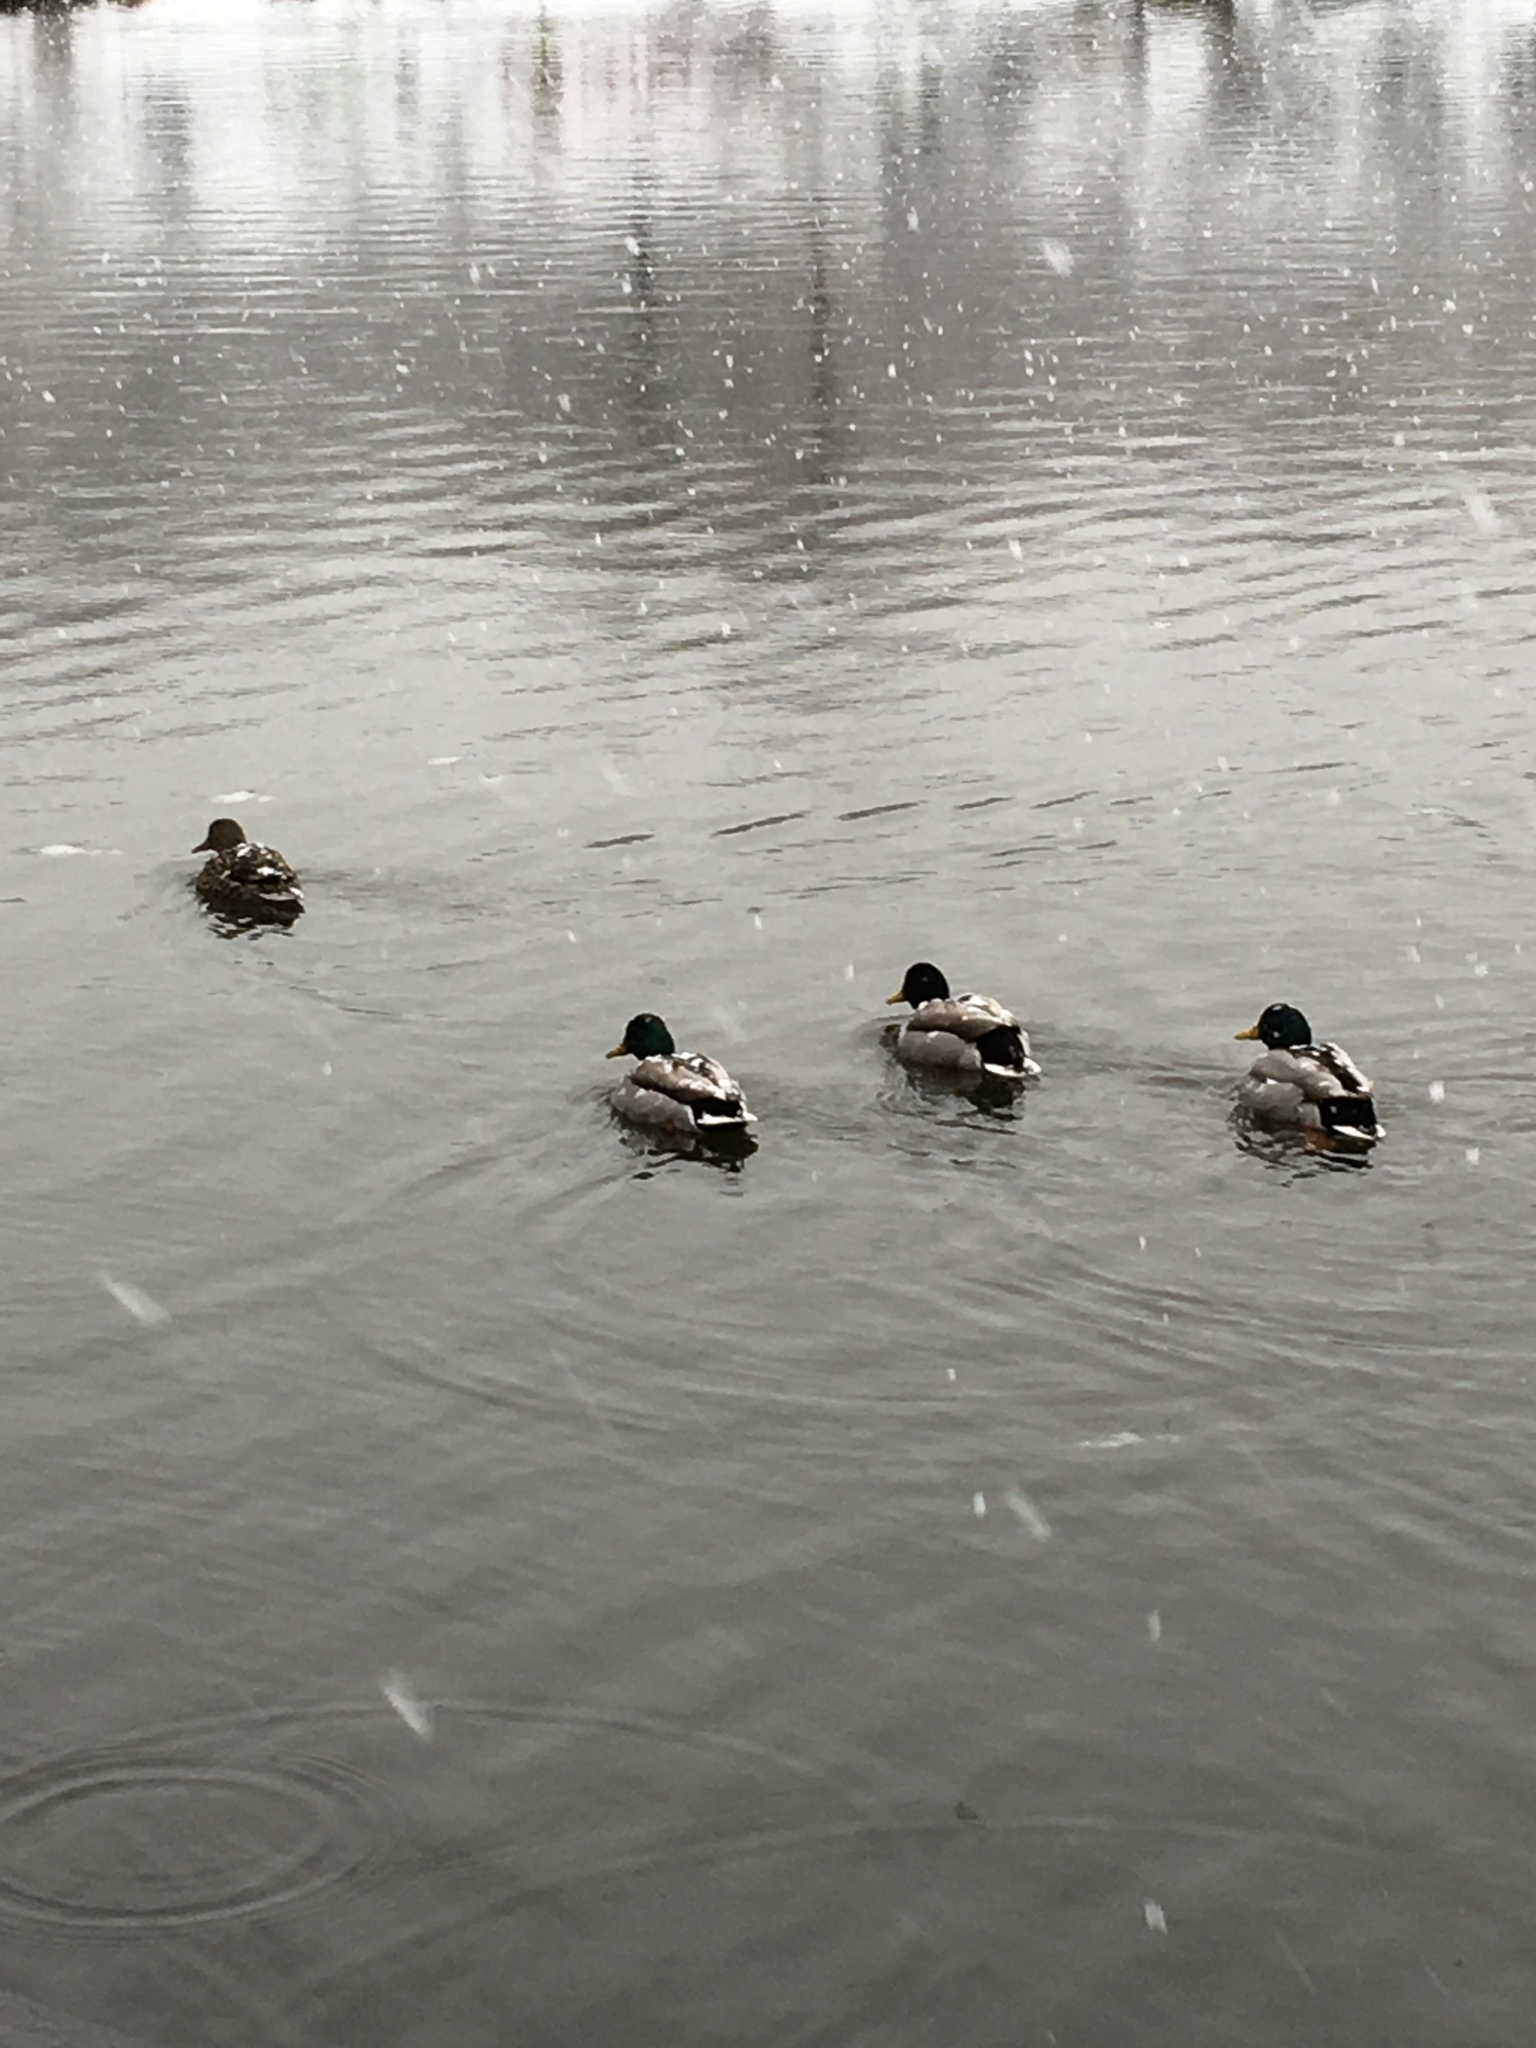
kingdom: Animalia
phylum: Chordata
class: Aves
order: Anseriformes
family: Anatidae
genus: Anas
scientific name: Anas platyrhynchos
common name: Mallard
